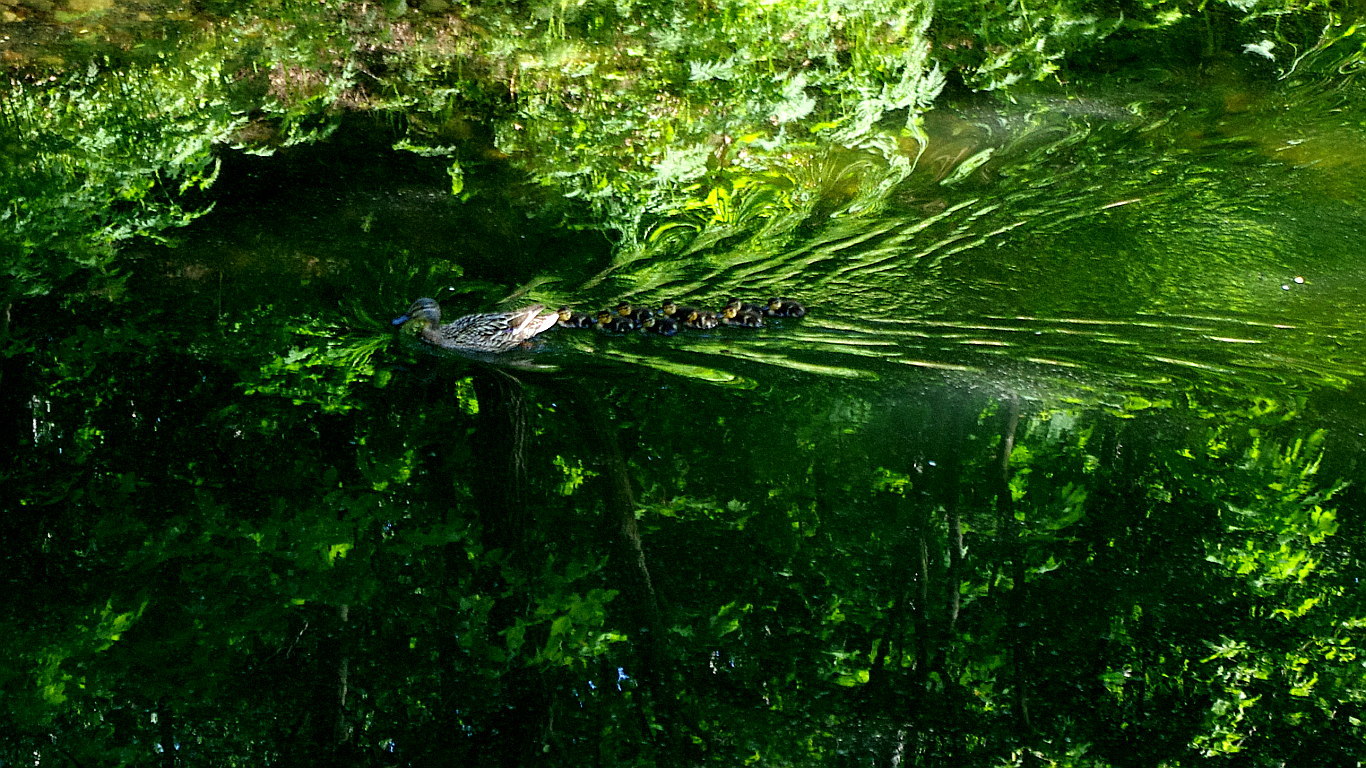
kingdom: Animalia
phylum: Chordata
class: Aves
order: Anseriformes
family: Anatidae
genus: Anas
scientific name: Anas platyrhynchos
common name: Mallard
